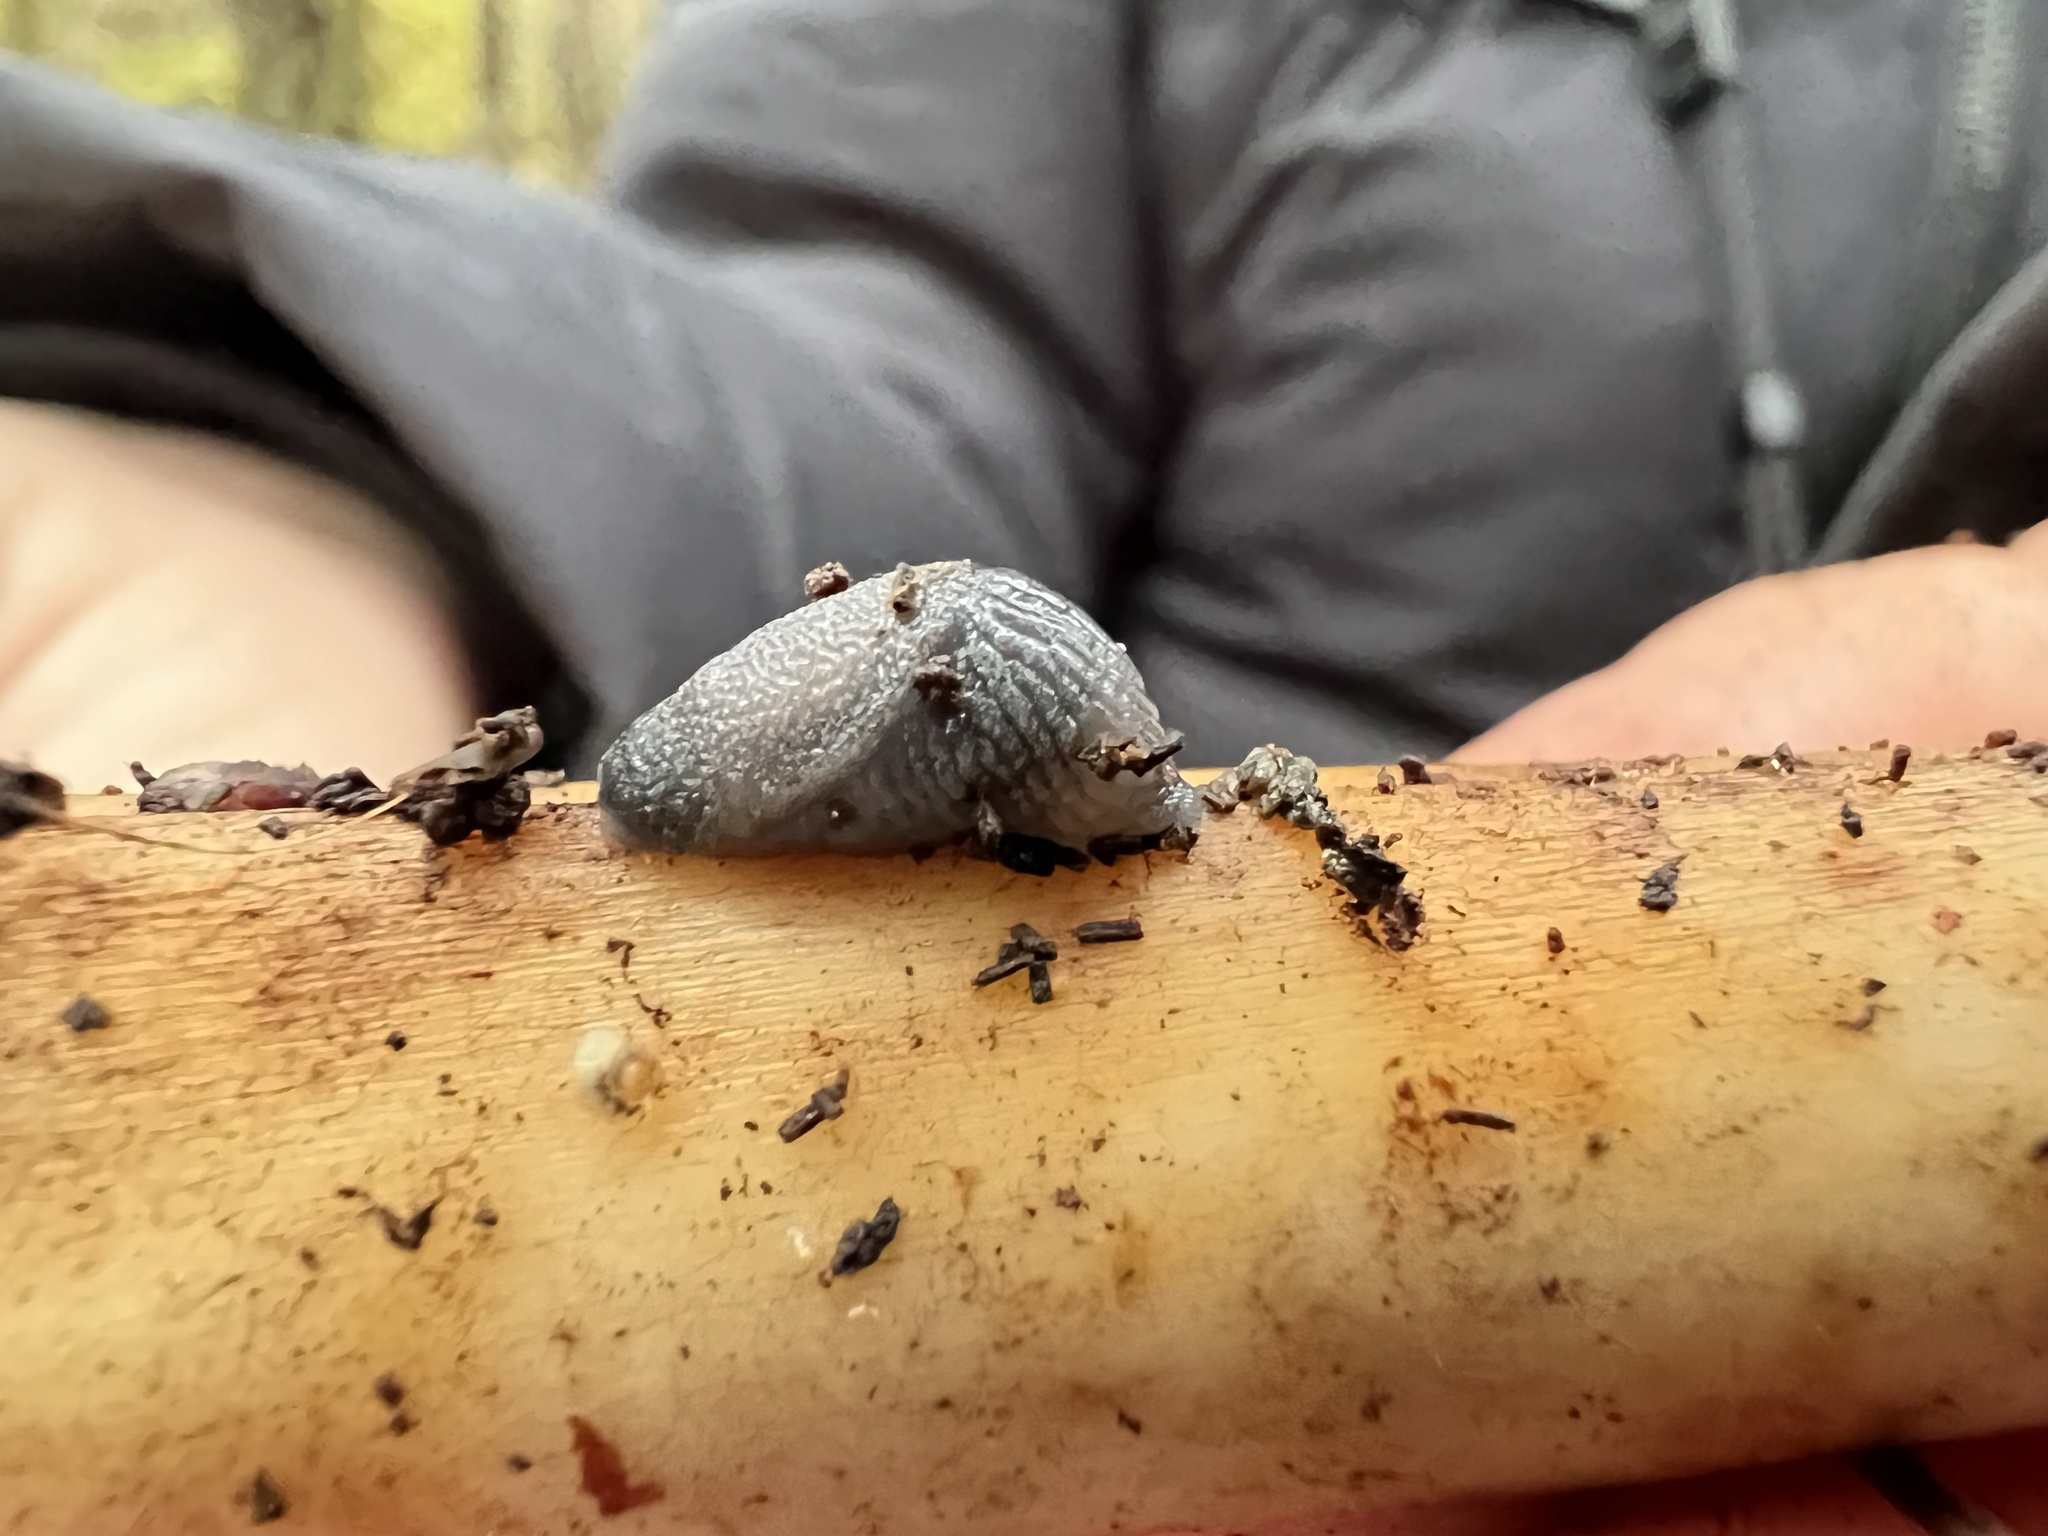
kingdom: Animalia
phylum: Mollusca
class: Gastropoda
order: Stylommatophora
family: Ariolimacidae
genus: Prophysaon
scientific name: Prophysaon coeruleum
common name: Blue-gray taildropper
